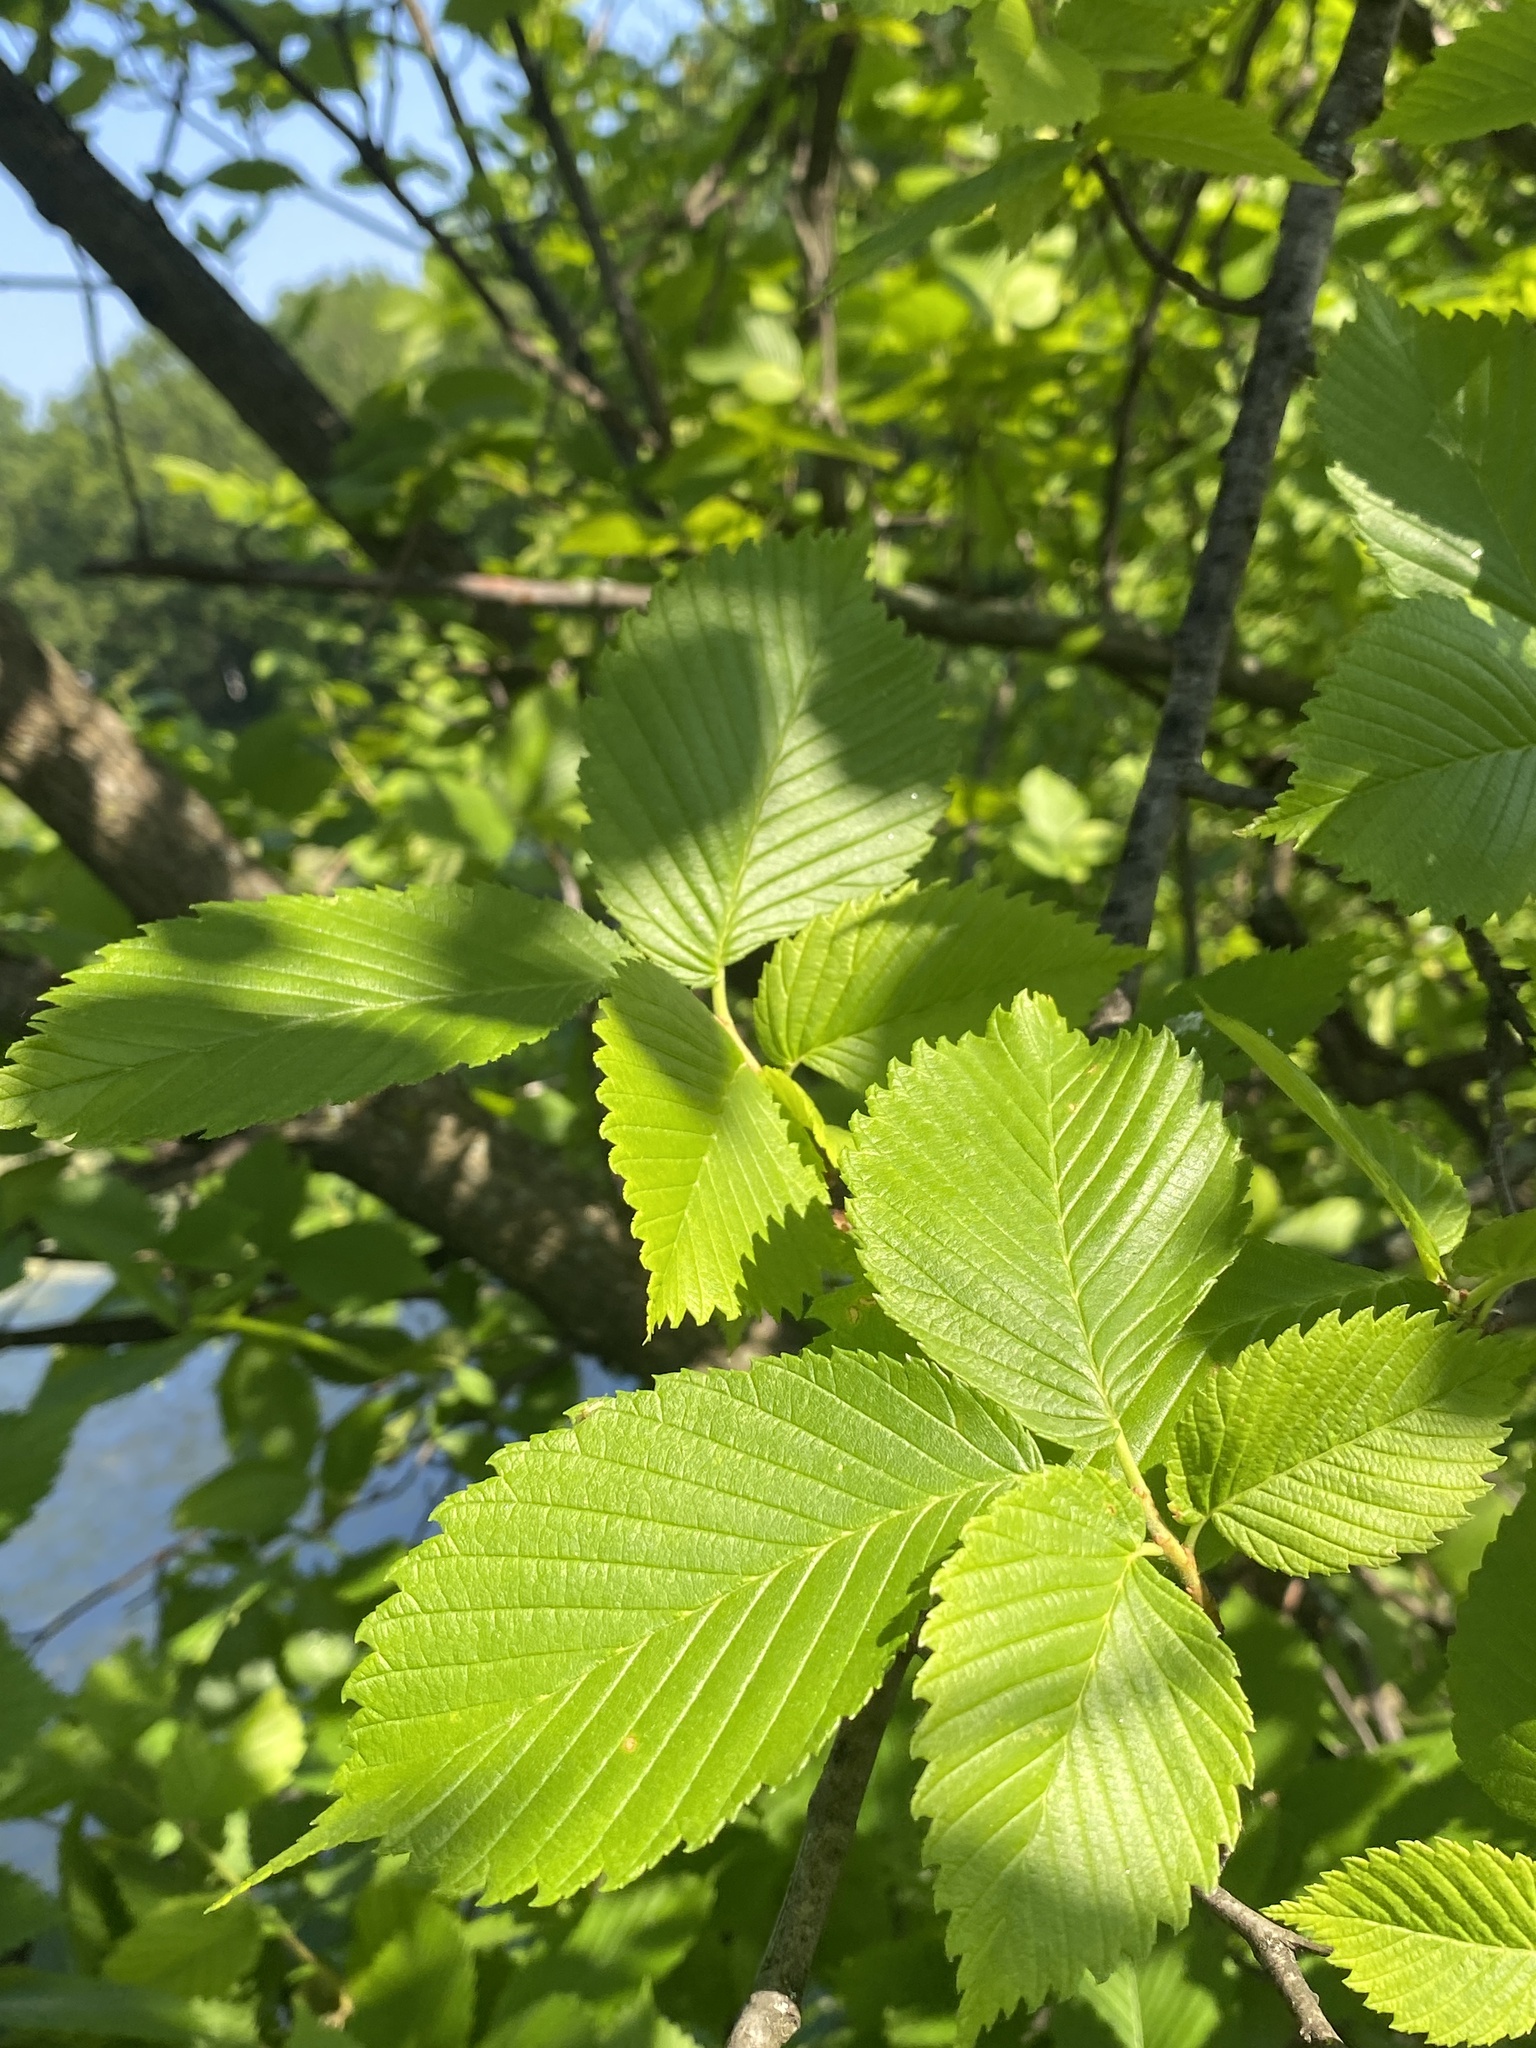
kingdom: Plantae
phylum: Tracheophyta
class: Magnoliopsida
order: Rosales
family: Ulmaceae
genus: Ulmus
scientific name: Ulmus americana
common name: American elm
